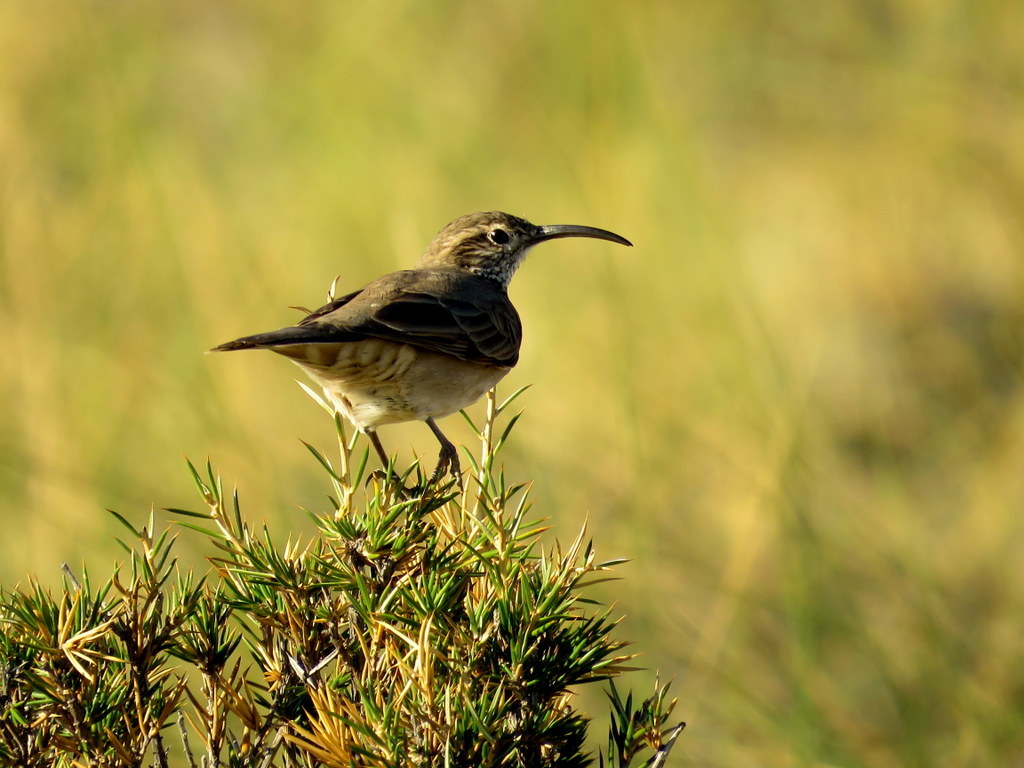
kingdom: Animalia
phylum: Chordata
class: Aves
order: Passeriformes
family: Furnariidae
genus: Upucerthia
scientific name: Upucerthia dumetaria
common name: Scale-throated earthcreeper
